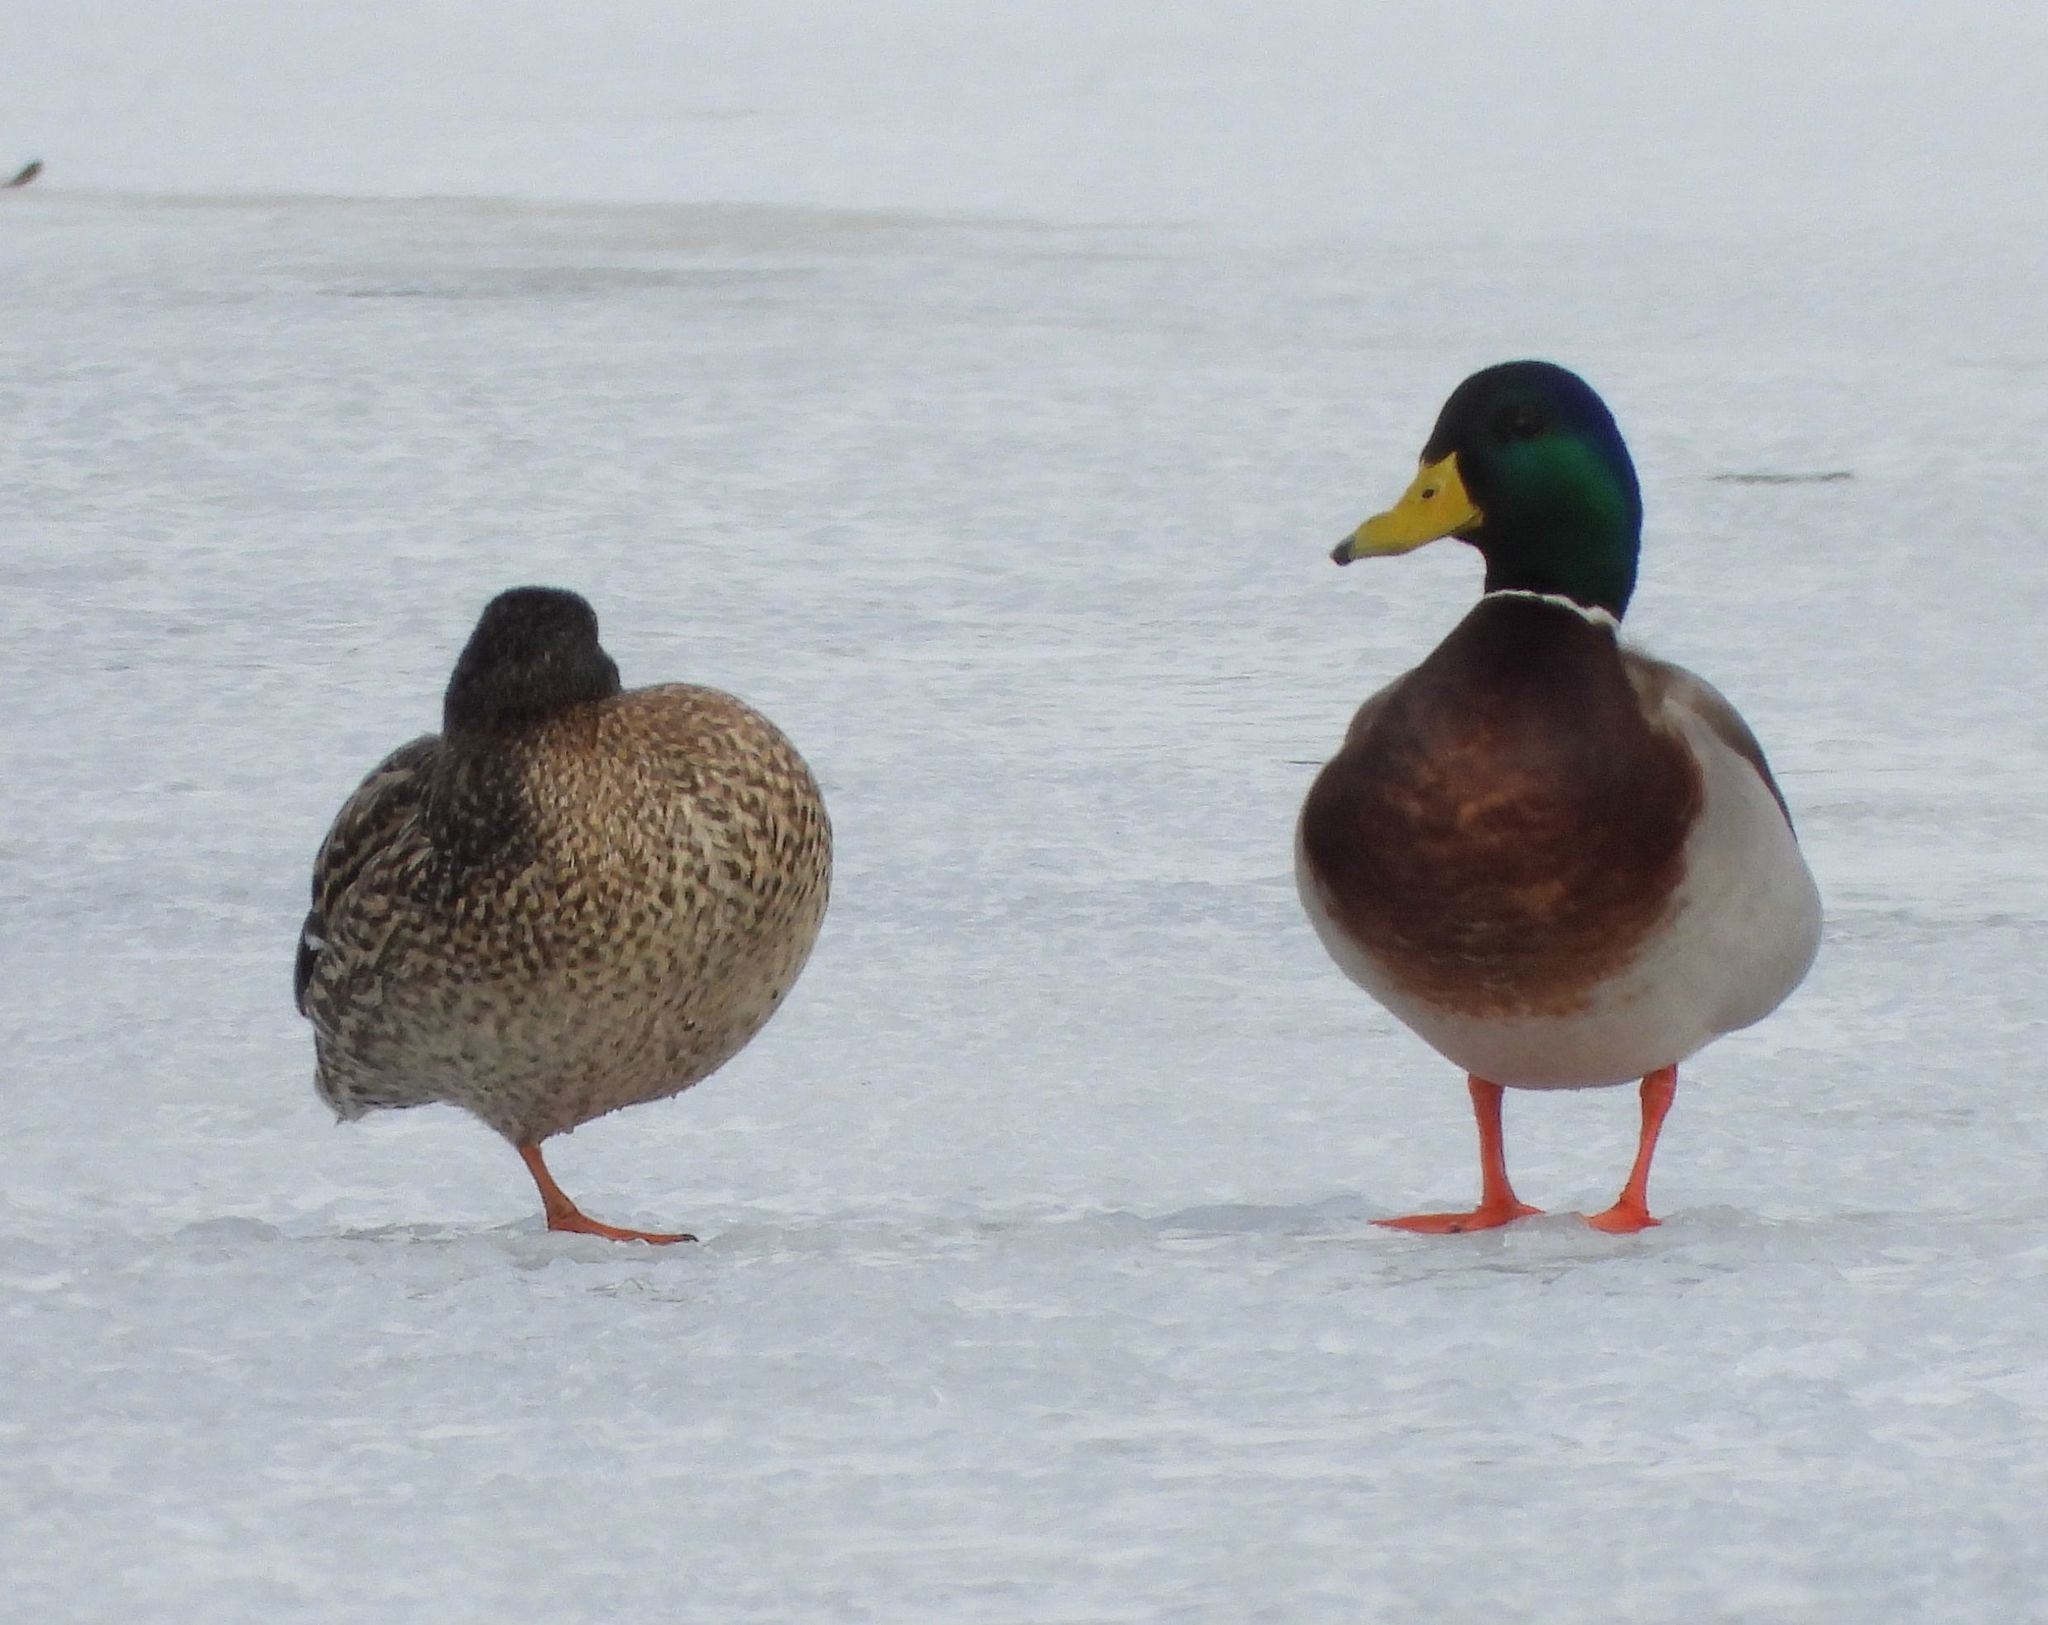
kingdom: Animalia
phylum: Chordata
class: Aves
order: Anseriformes
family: Anatidae
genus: Anas
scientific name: Anas platyrhynchos
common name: Mallard
